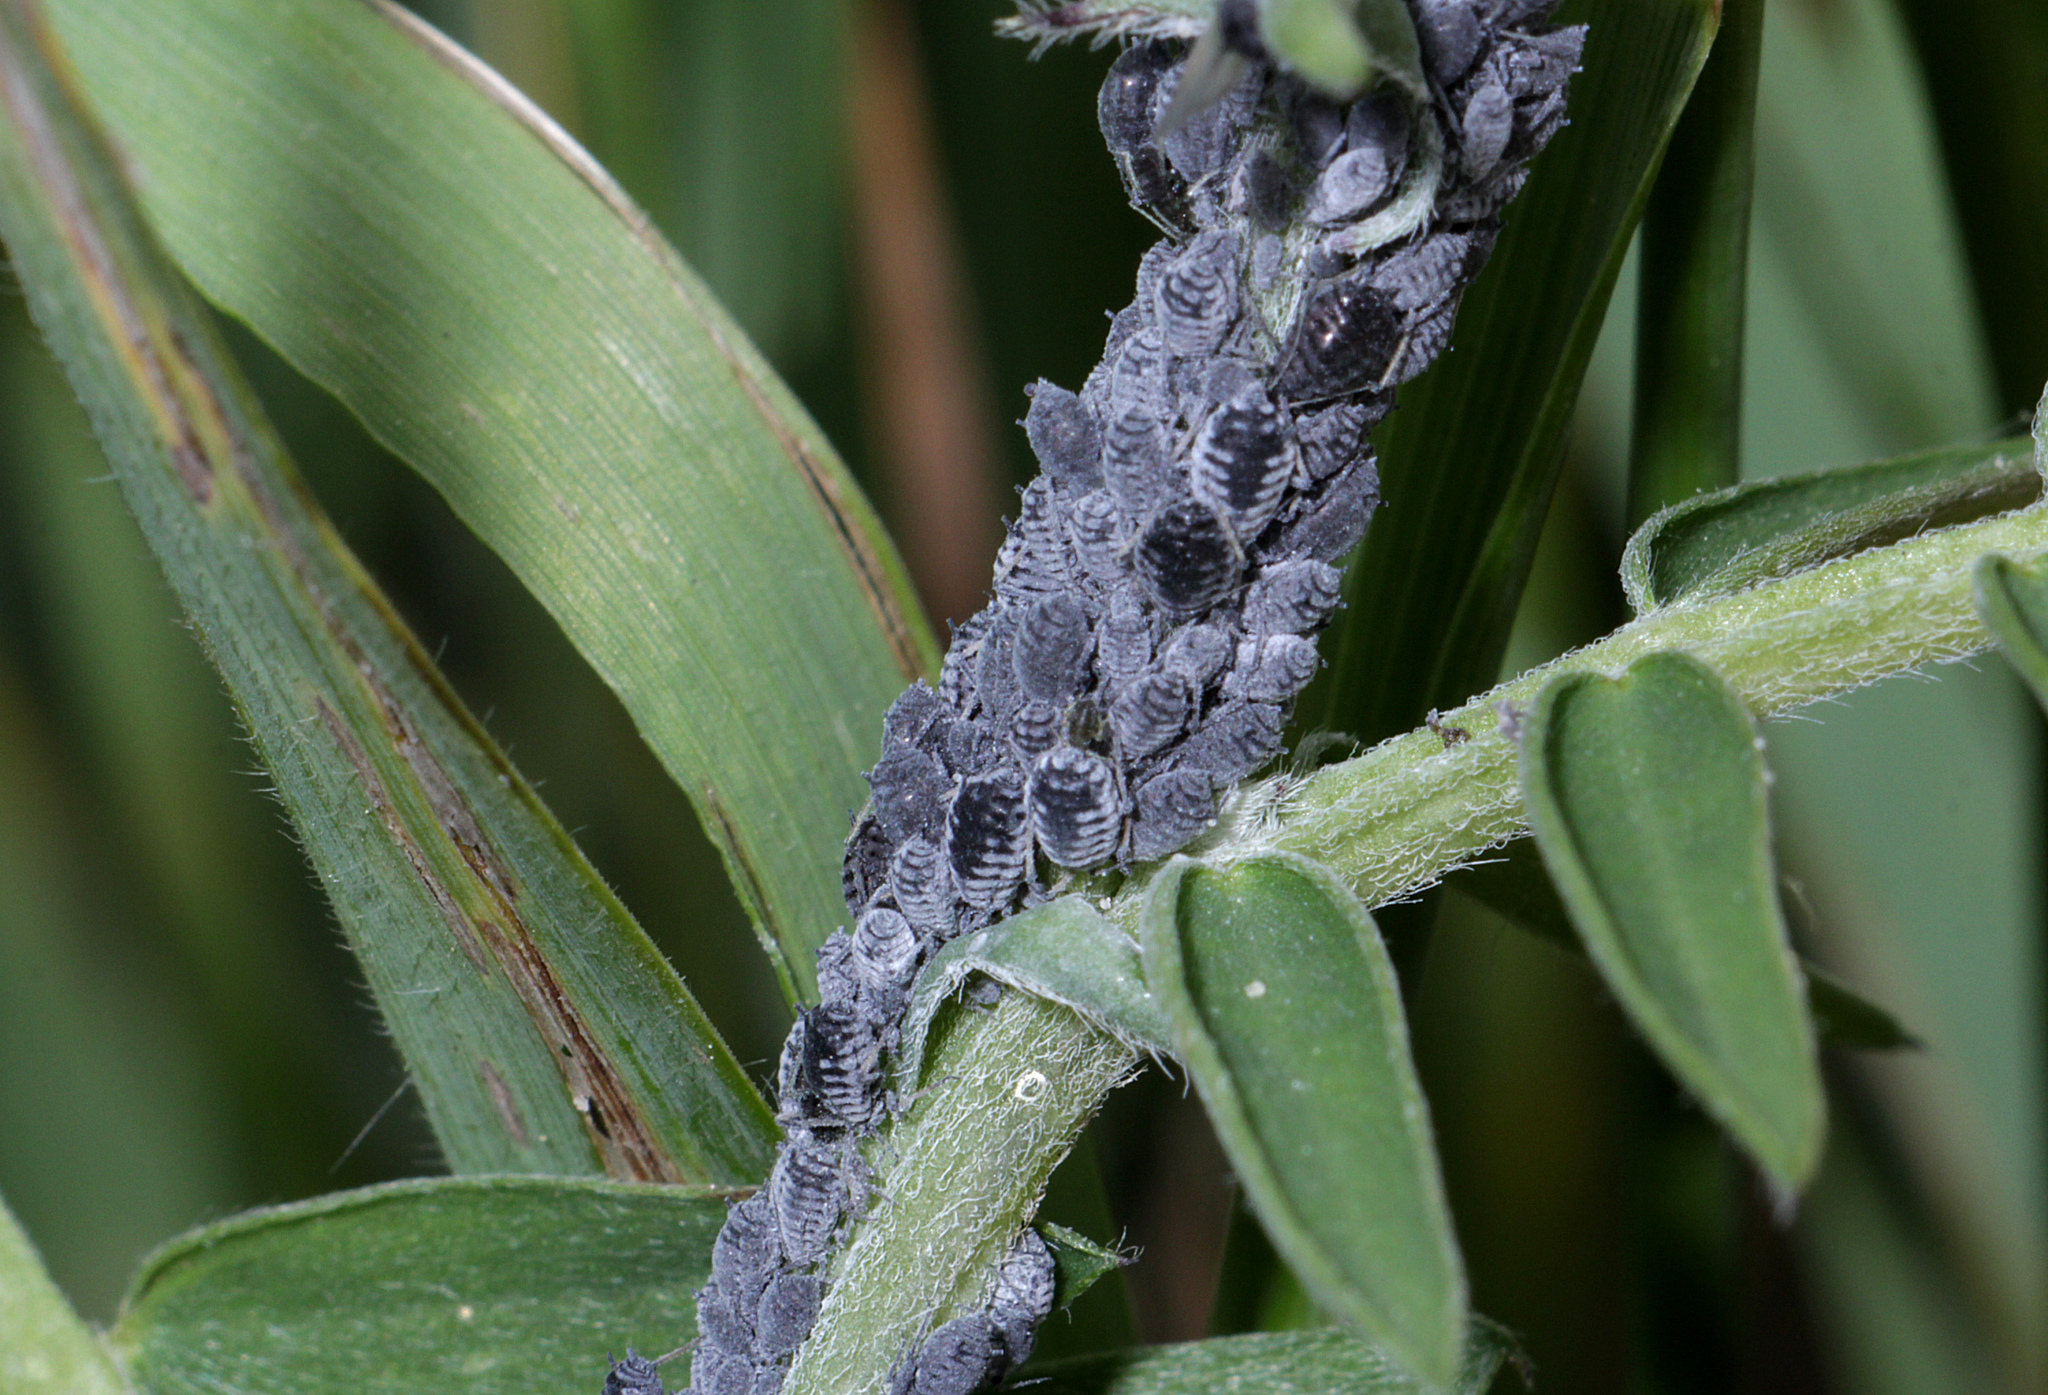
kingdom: Animalia
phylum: Arthropoda
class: Insecta
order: Hemiptera
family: Aphididae
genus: Aphis
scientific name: Aphis craccae
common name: Aphid
